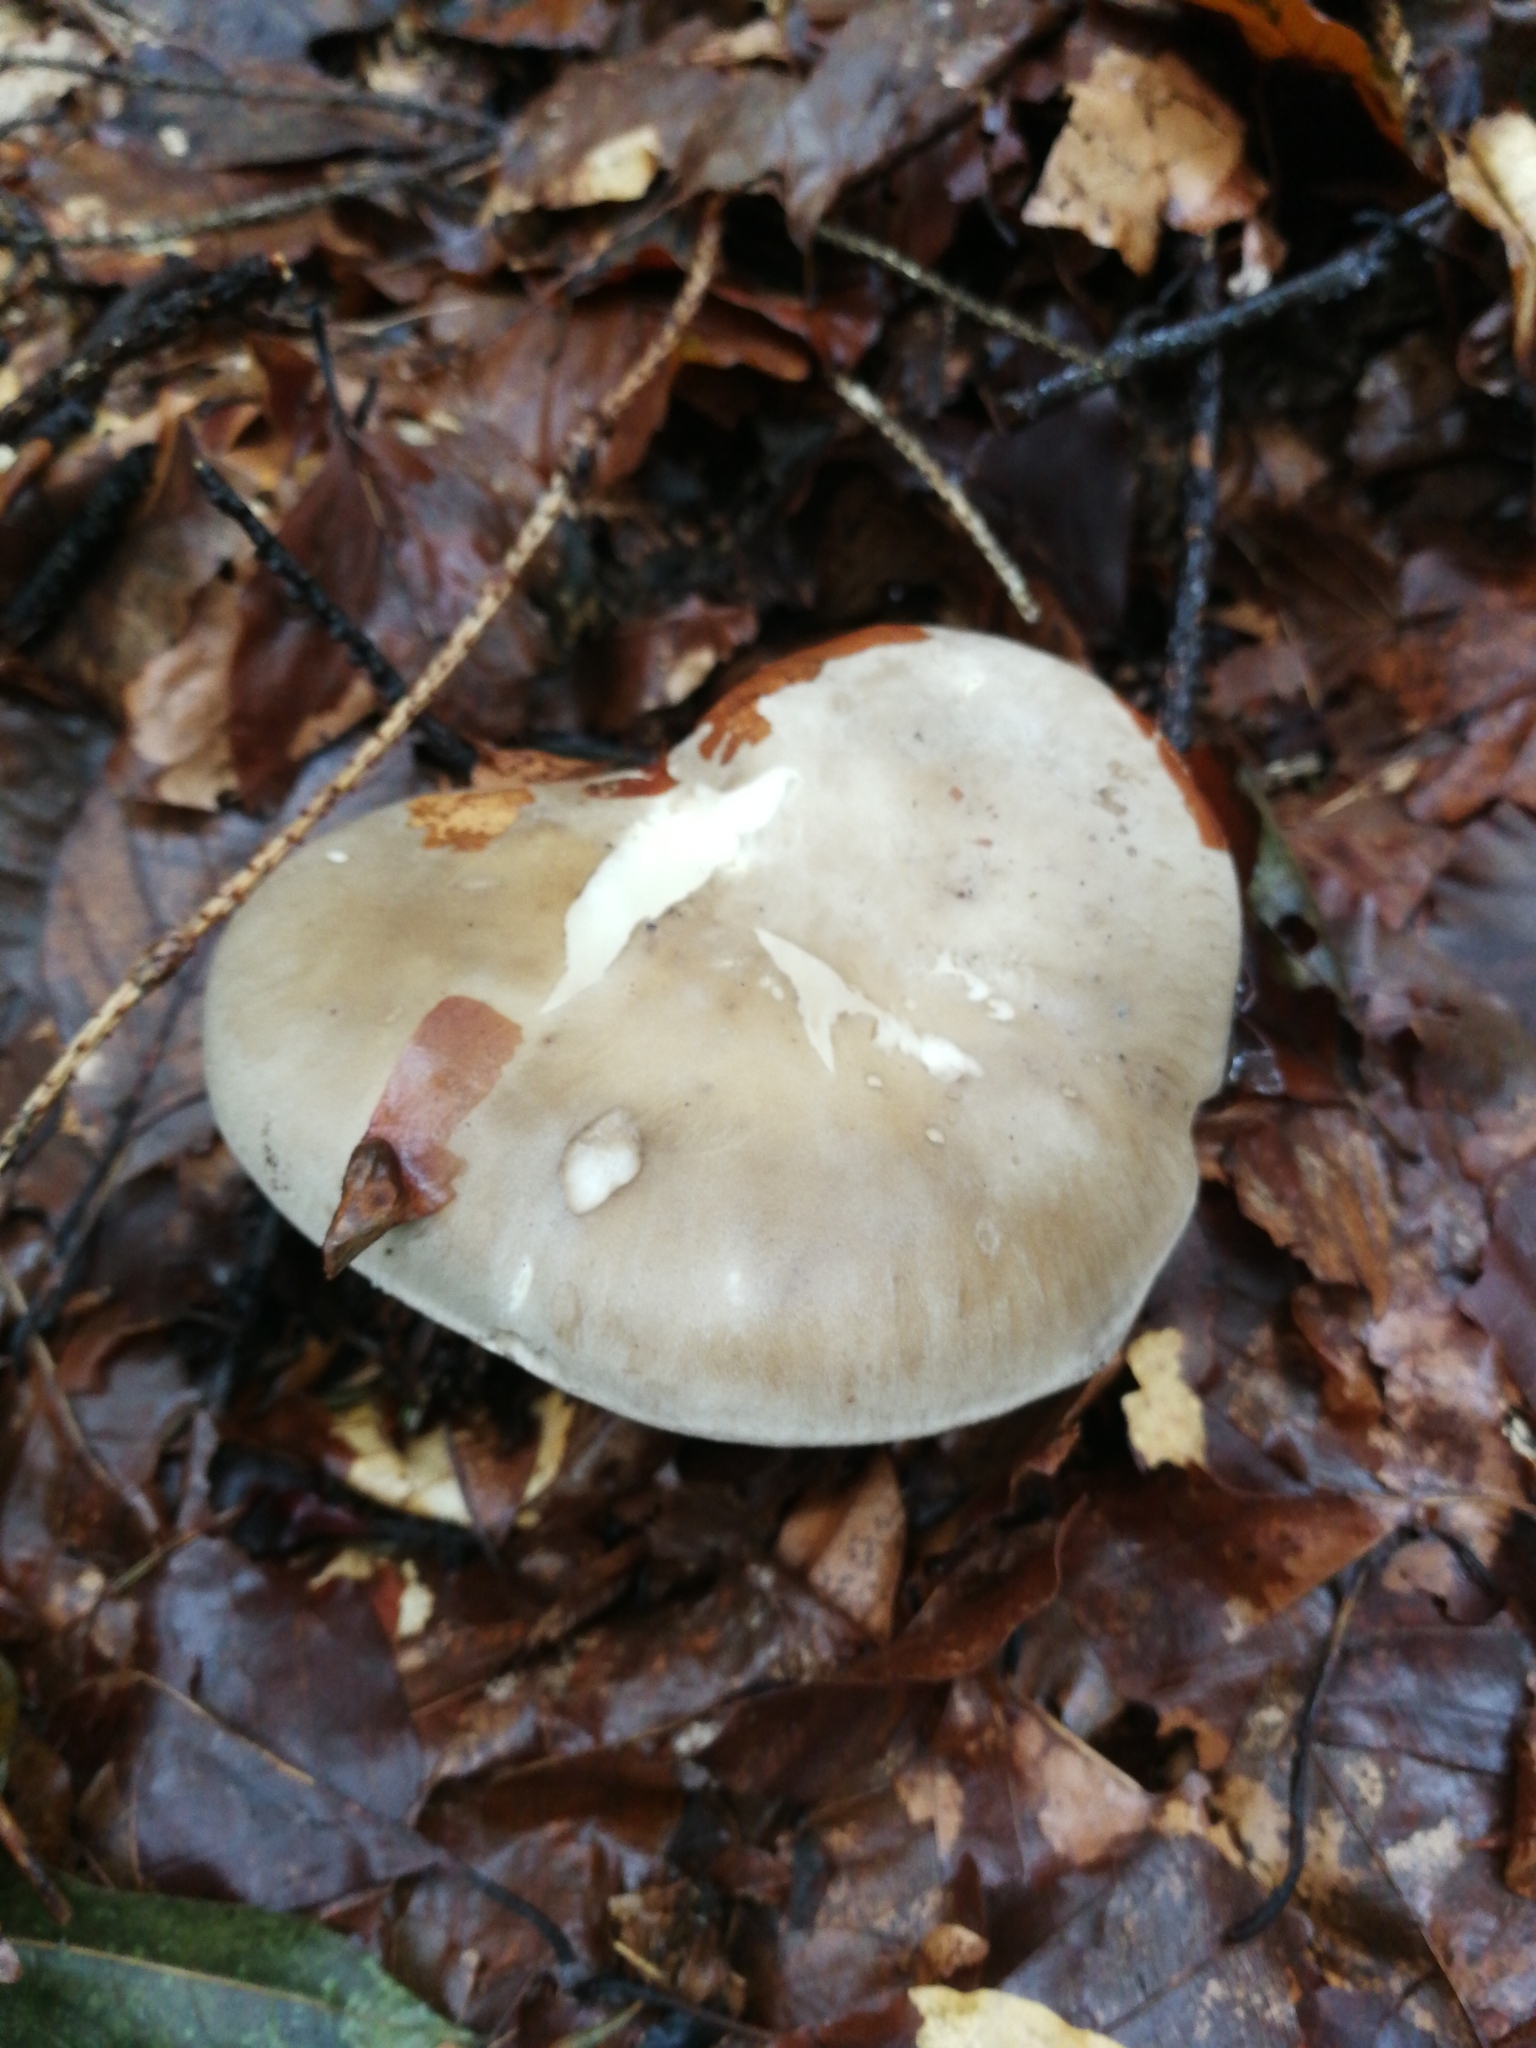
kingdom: Fungi
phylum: Basidiomycota
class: Agaricomycetes
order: Agaricales
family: Tricholomataceae
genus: Clitocybe
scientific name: Clitocybe nebularis
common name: Clouded agaric
